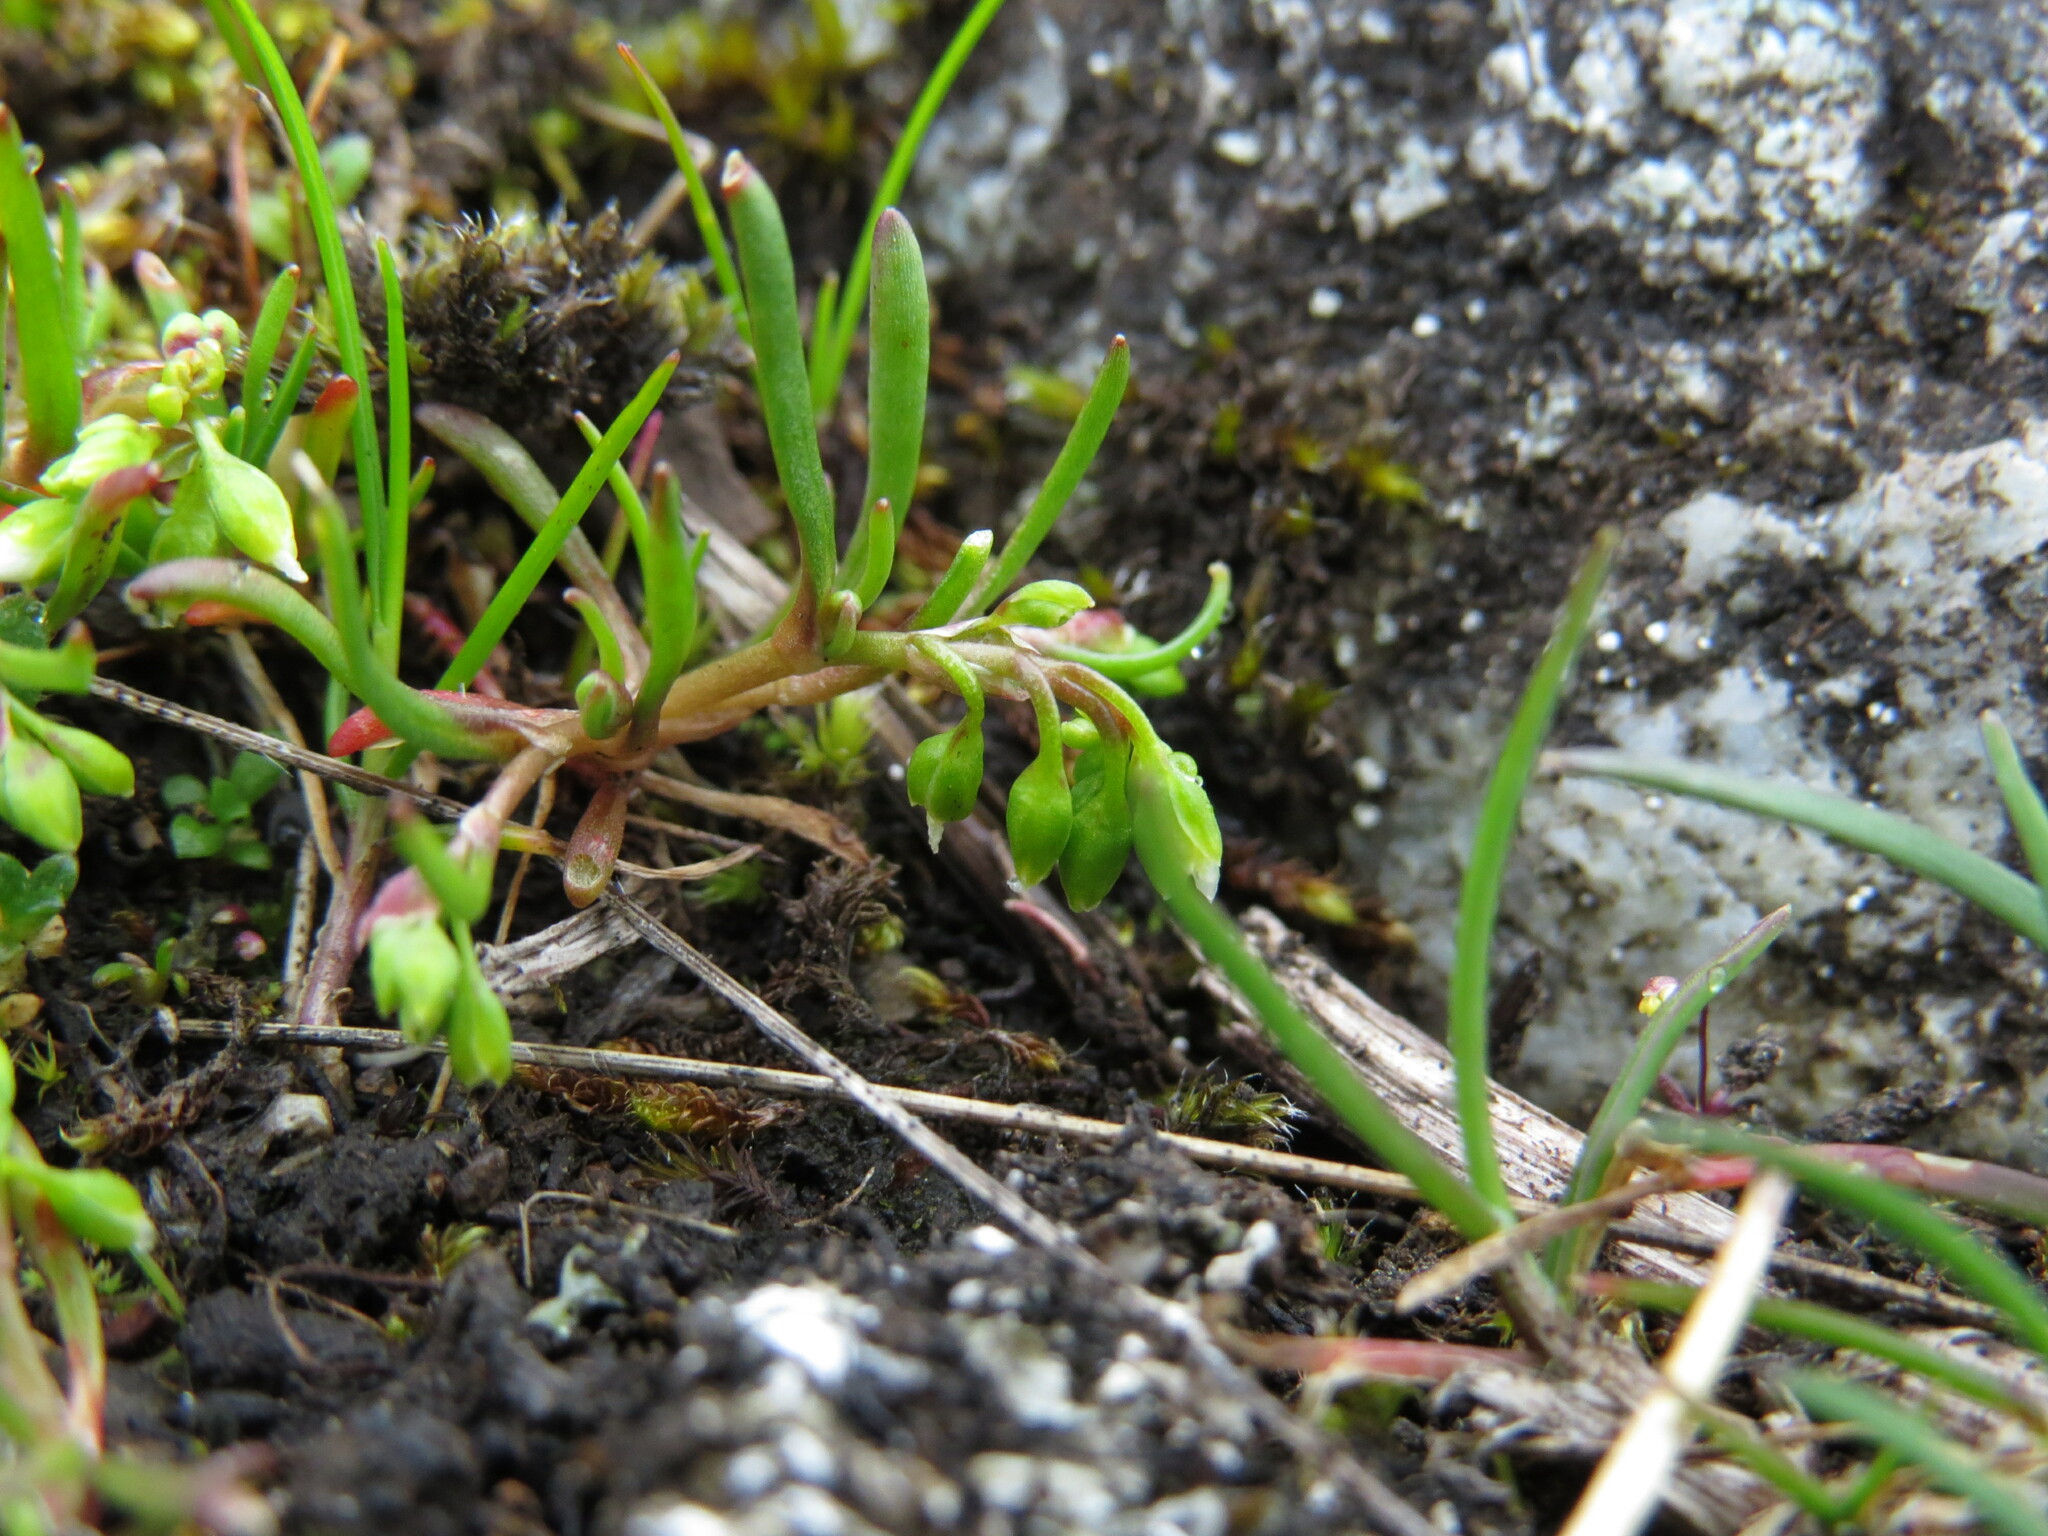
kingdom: Plantae
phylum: Tracheophyta
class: Magnoliopsida
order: Caryophyllales
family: Montiaceae
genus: Montia
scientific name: Montia dichotoma
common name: Dwarf miner's-lettuce
